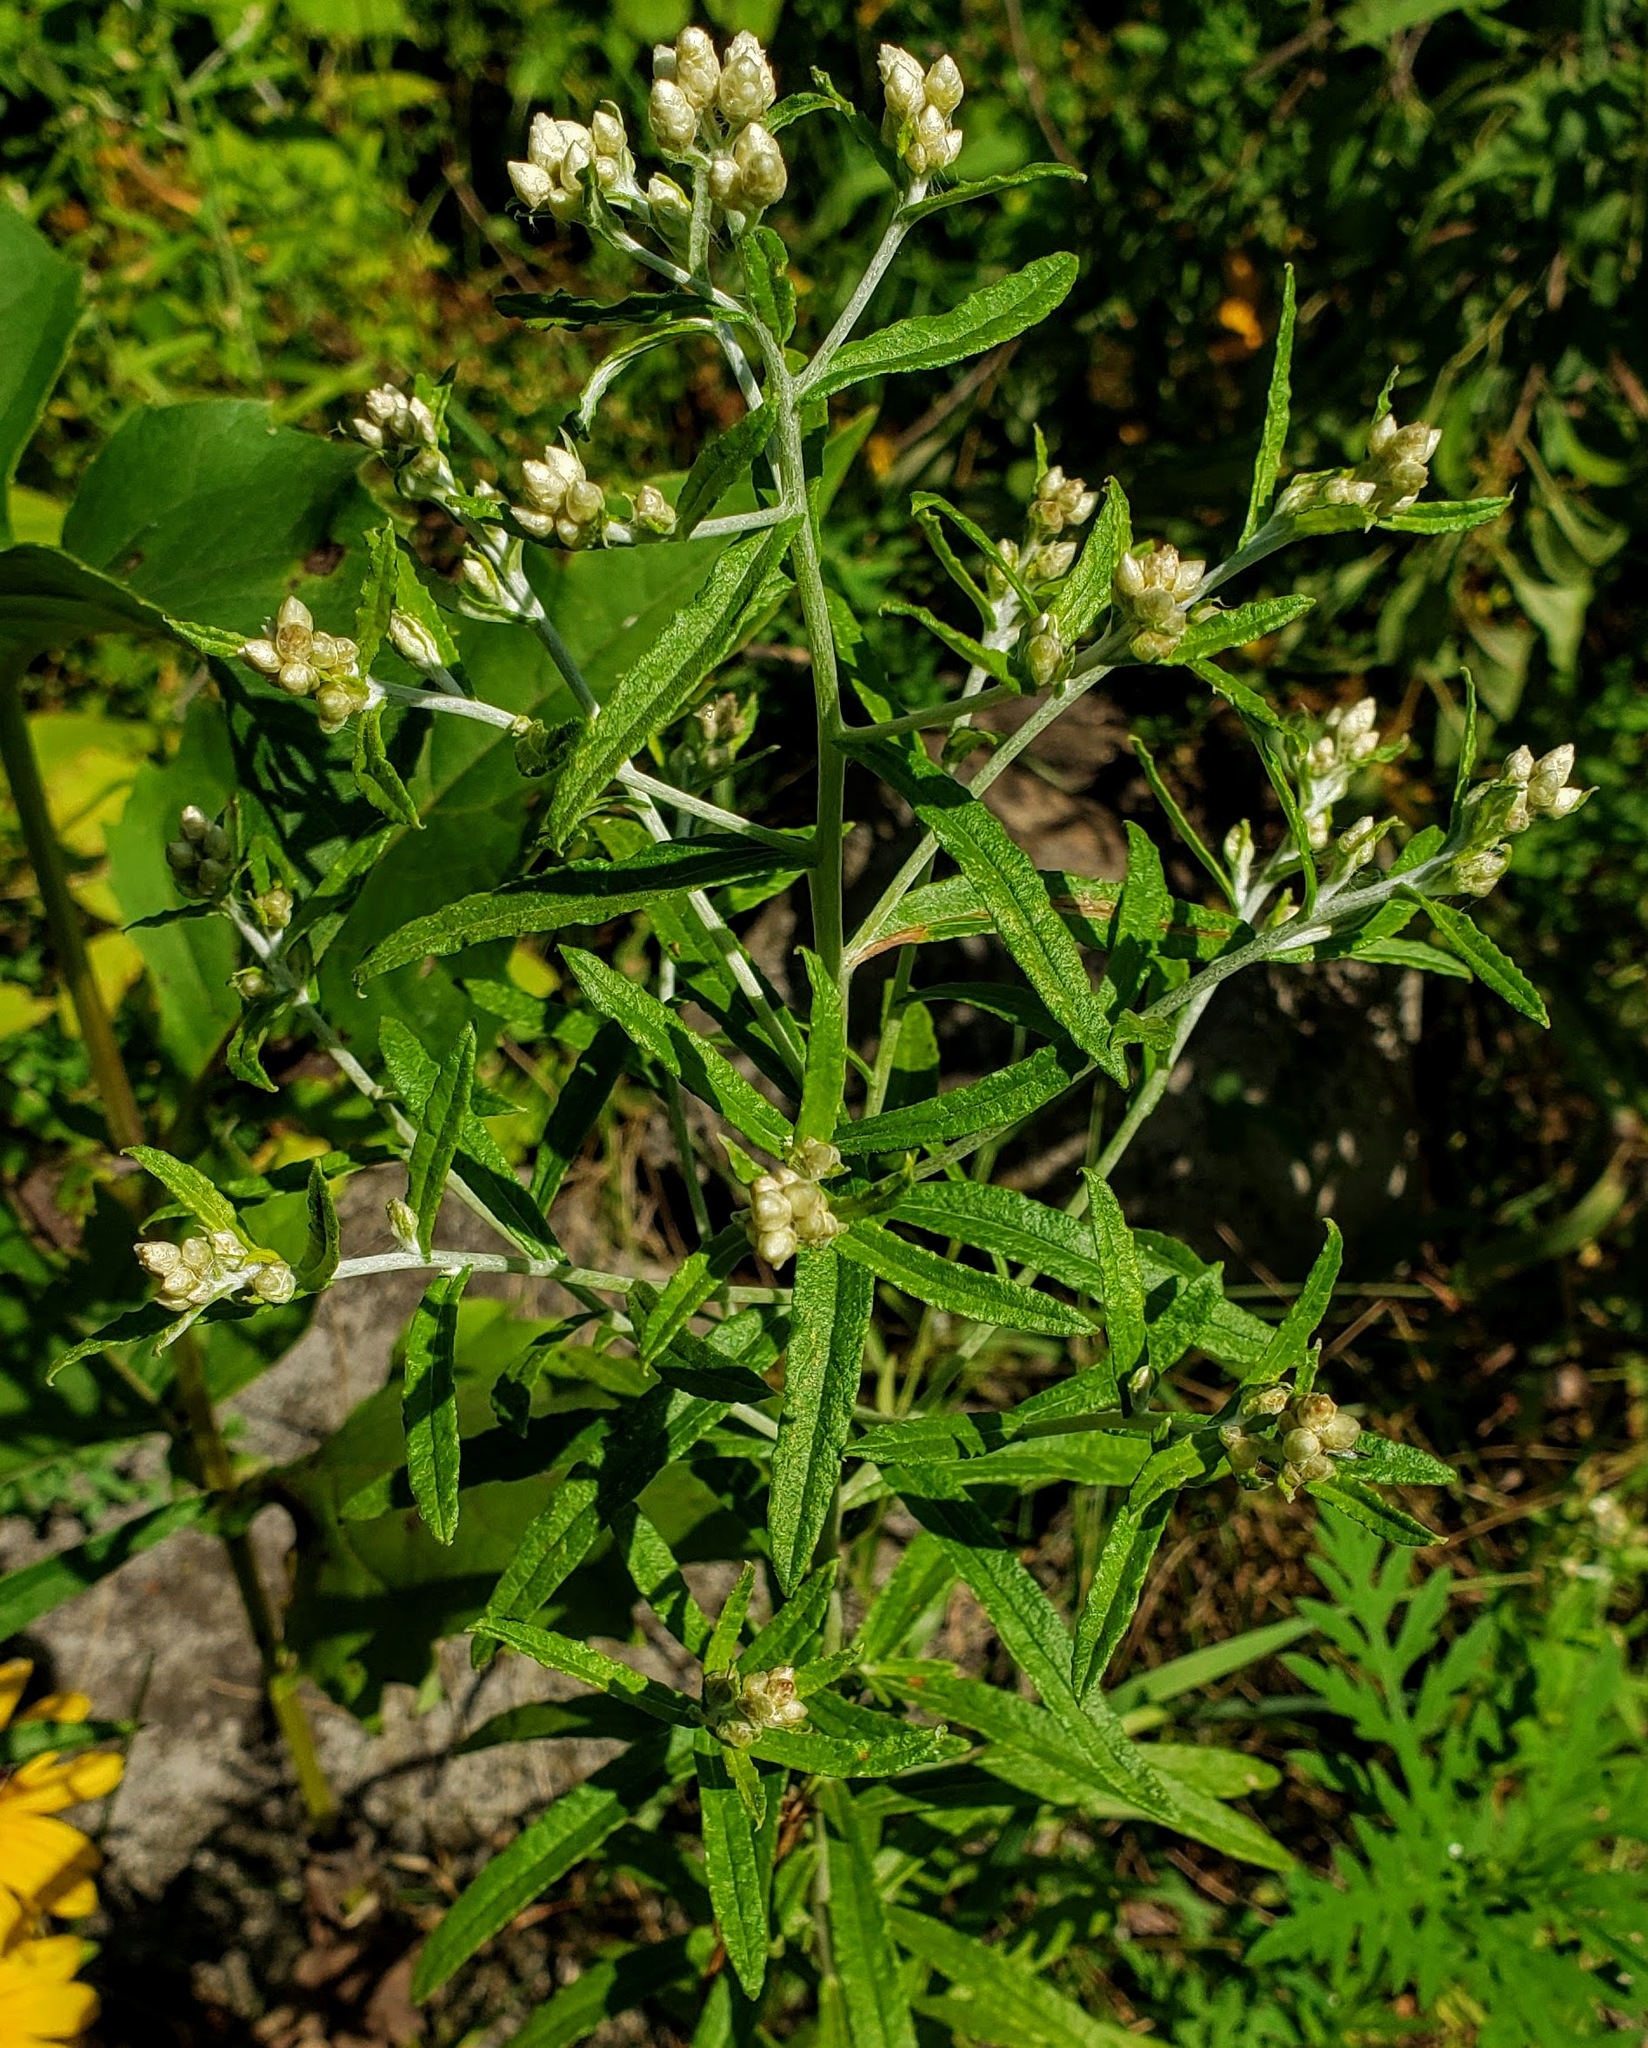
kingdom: Plantae
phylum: Tracheophyta
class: Magnoliopsida
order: Asterales
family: Asteraceae
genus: Pseudognaphalium
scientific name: Pseudognaphalium obtusifolium
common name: Eastern rabbit-tobacco
